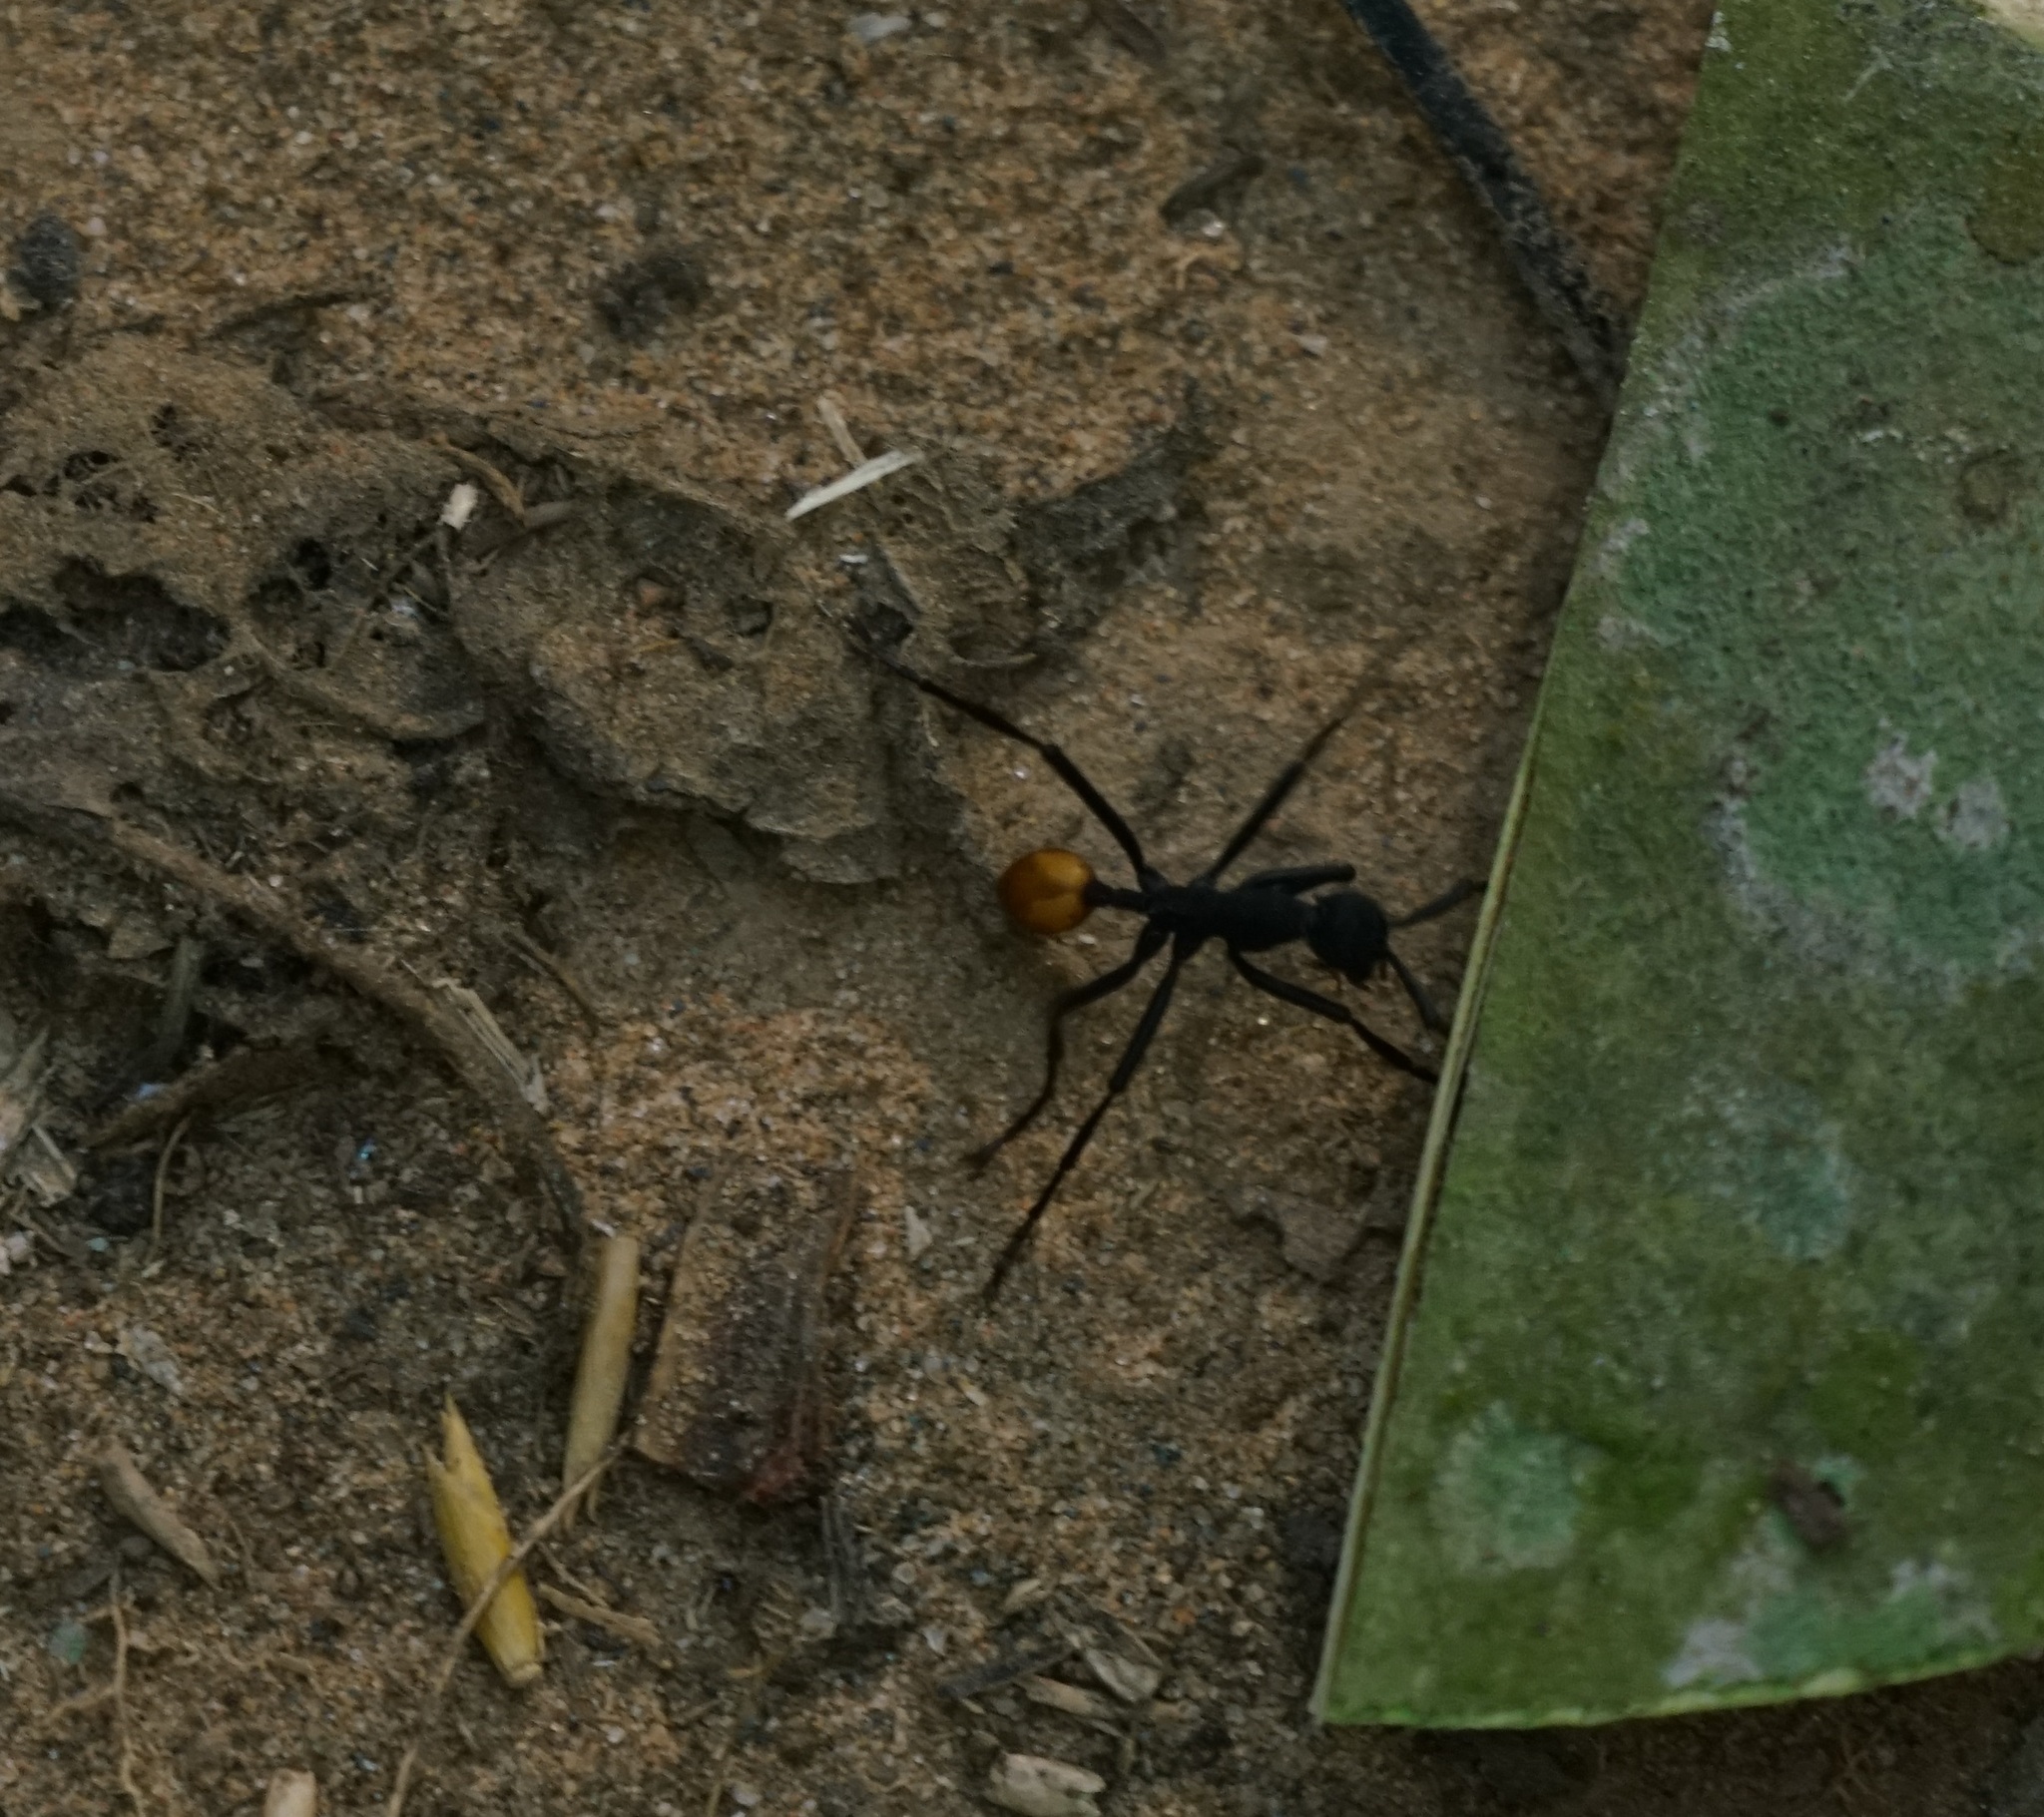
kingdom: Animalia
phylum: Arthropoda
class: Insecta
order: Hymenoptera
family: Formicidae
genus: Eciton
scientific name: Eciton rapax
